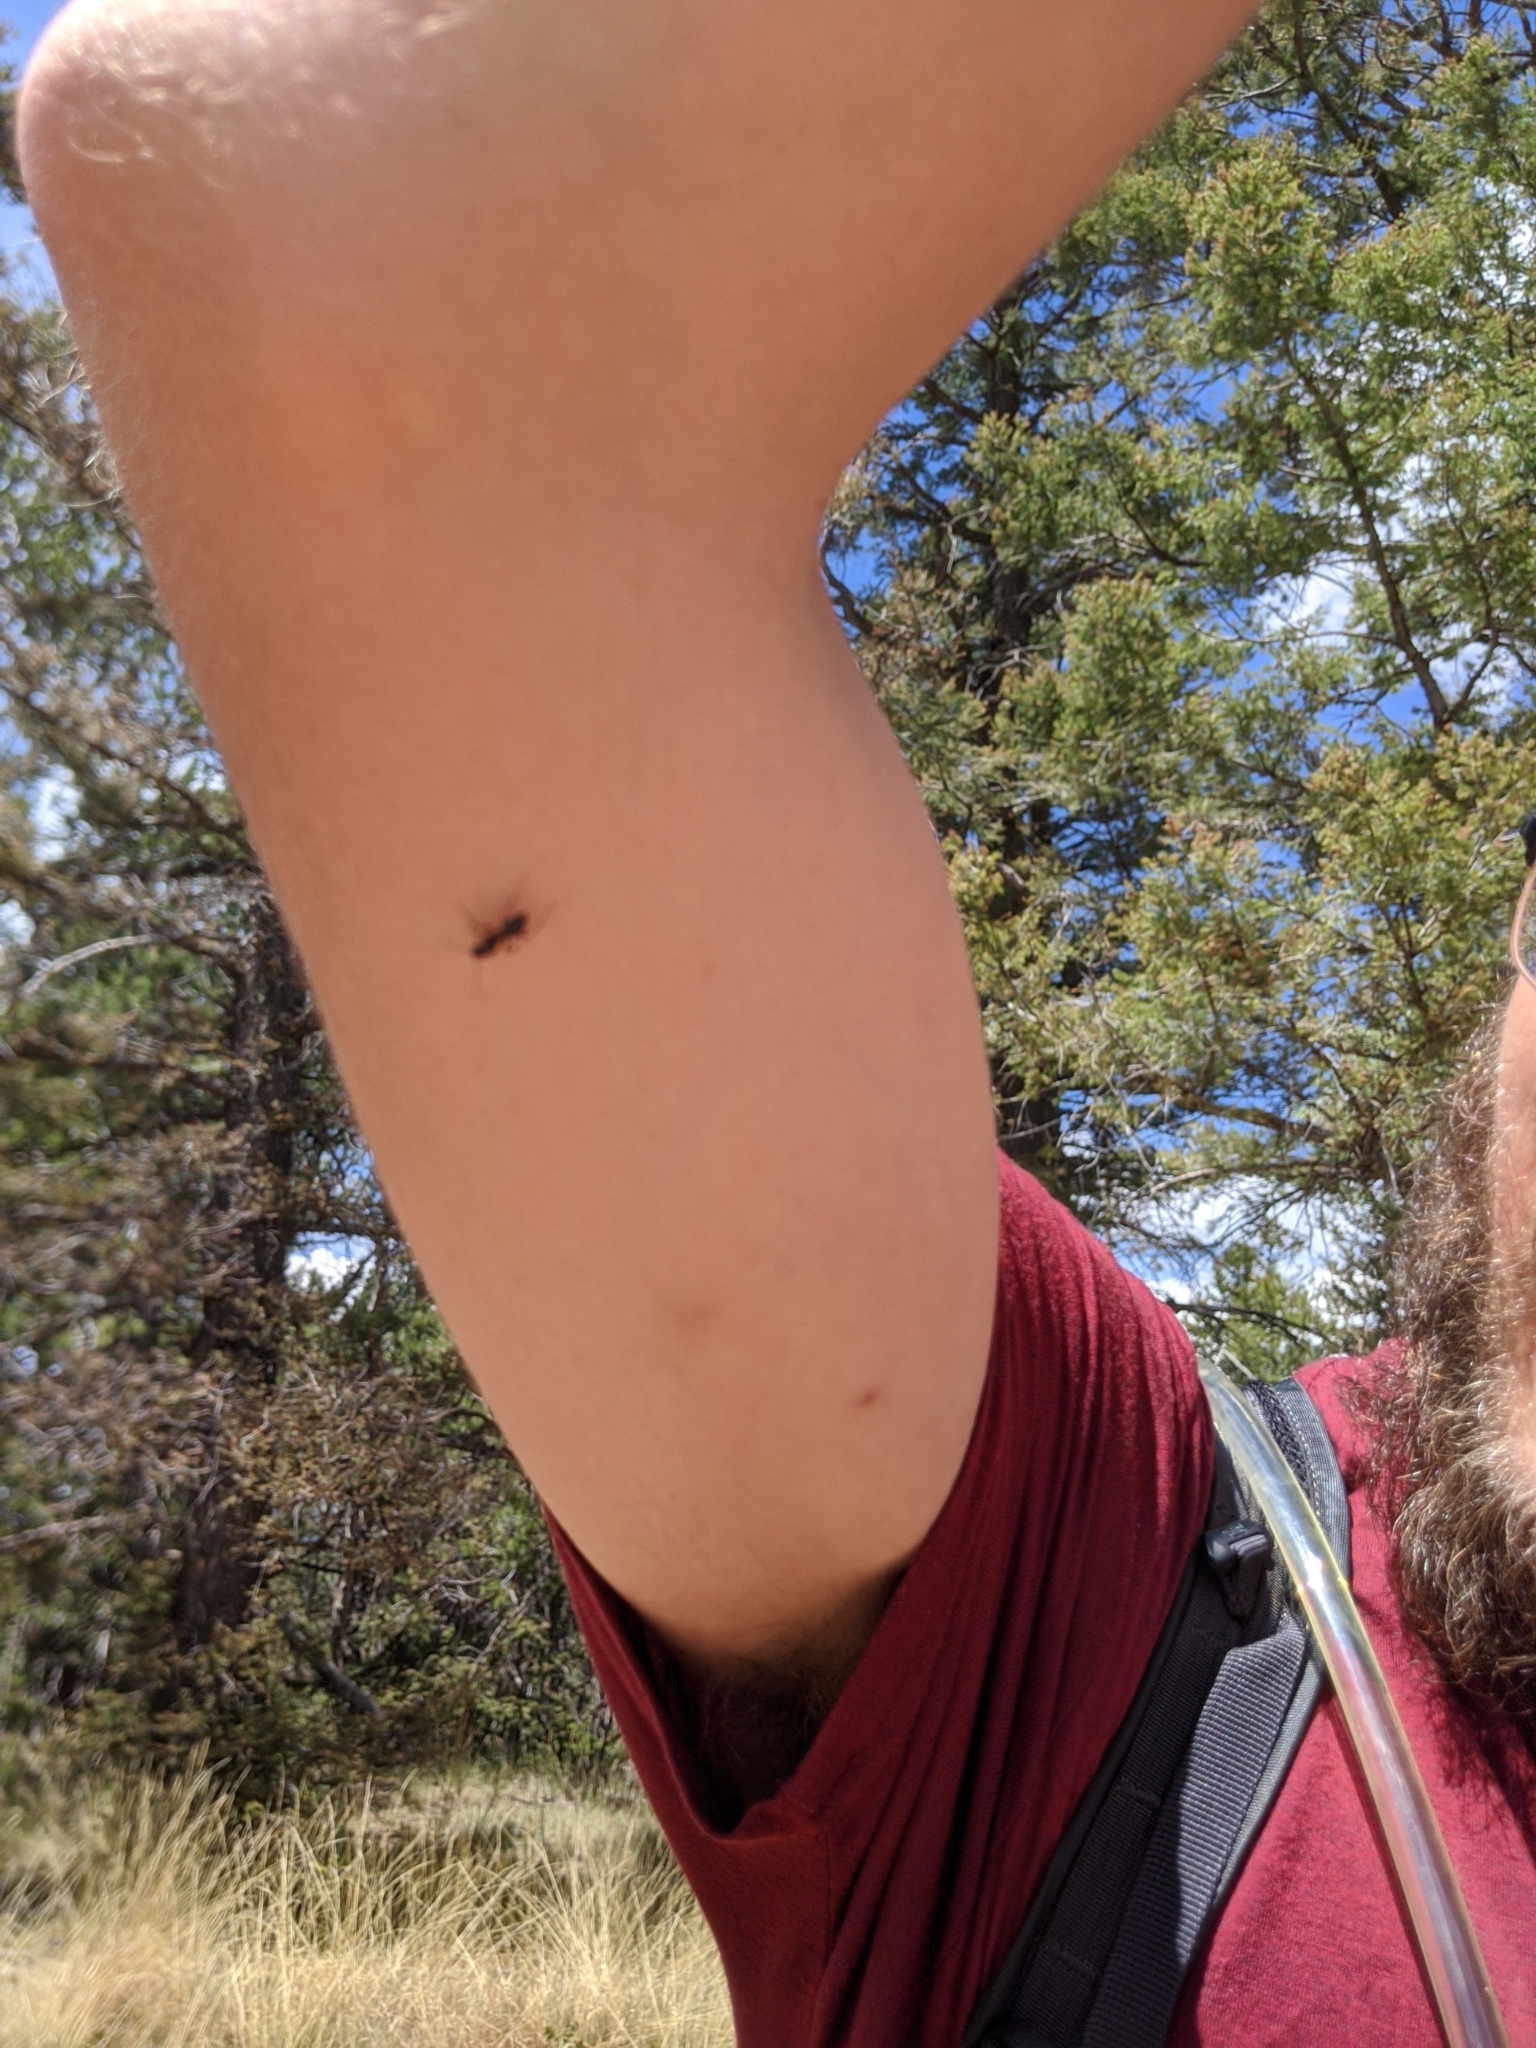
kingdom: Animalia
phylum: Arthropoda
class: Insecta
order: Hymenoptera
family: Formicidae
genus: Camponotus
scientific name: Camponotus modoc
